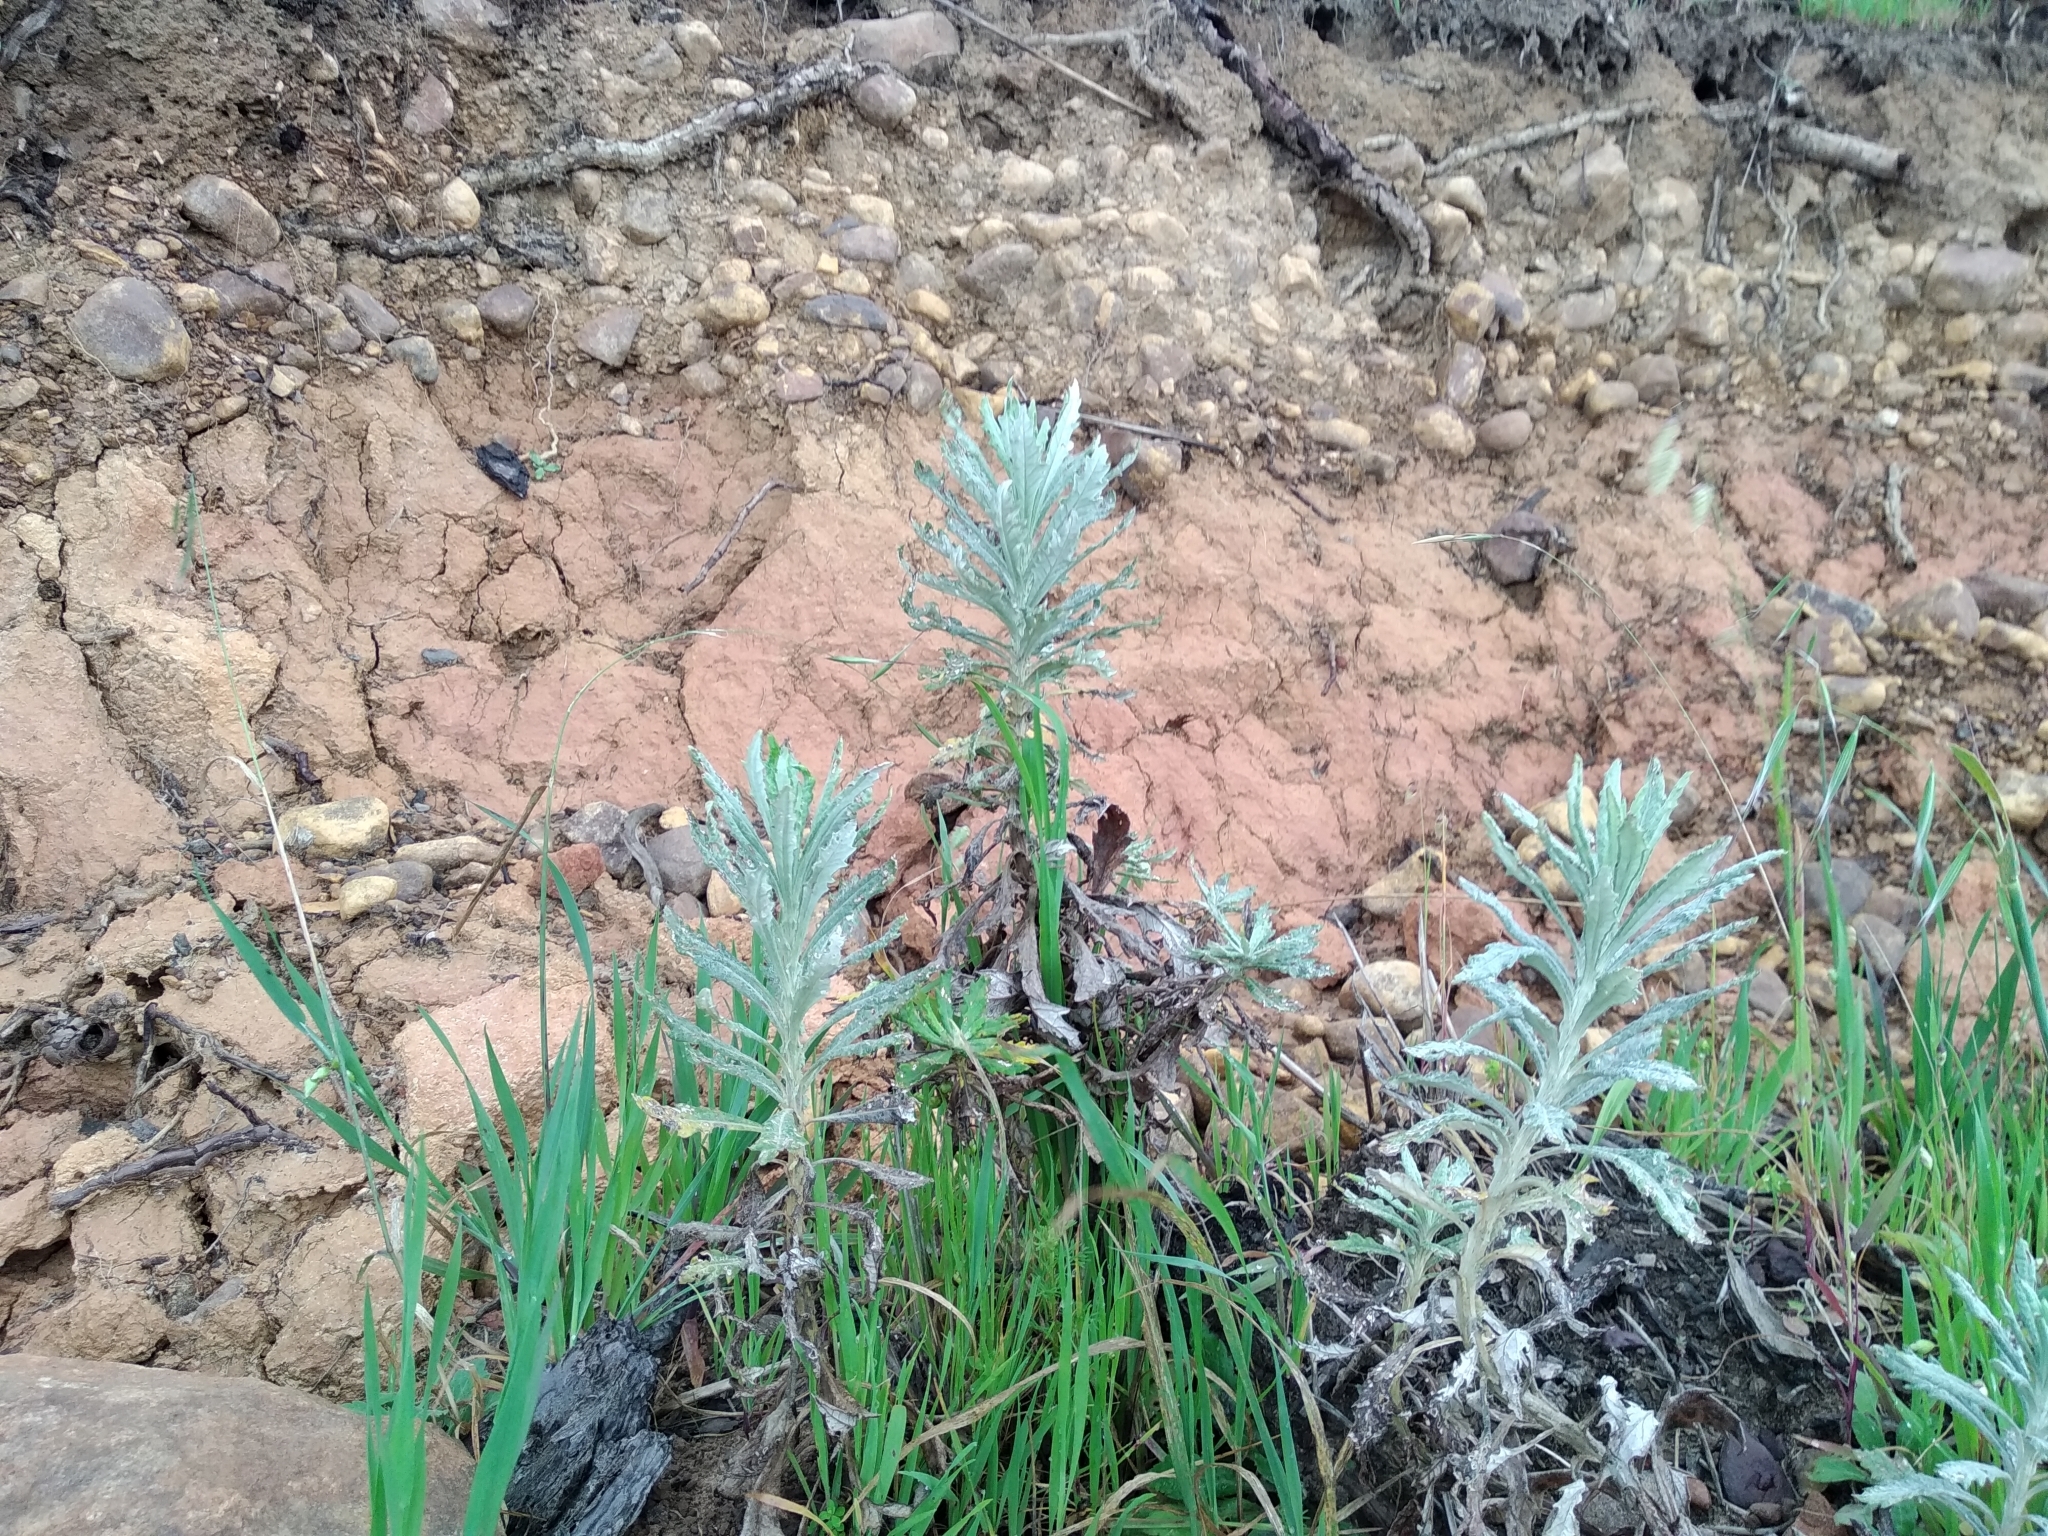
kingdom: Plantae
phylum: Tracheophyta
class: Magnoliopsida
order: Asterales
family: Asteraceae
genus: Senecio
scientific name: Senecio pterophorus
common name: Shoddy ragwort
